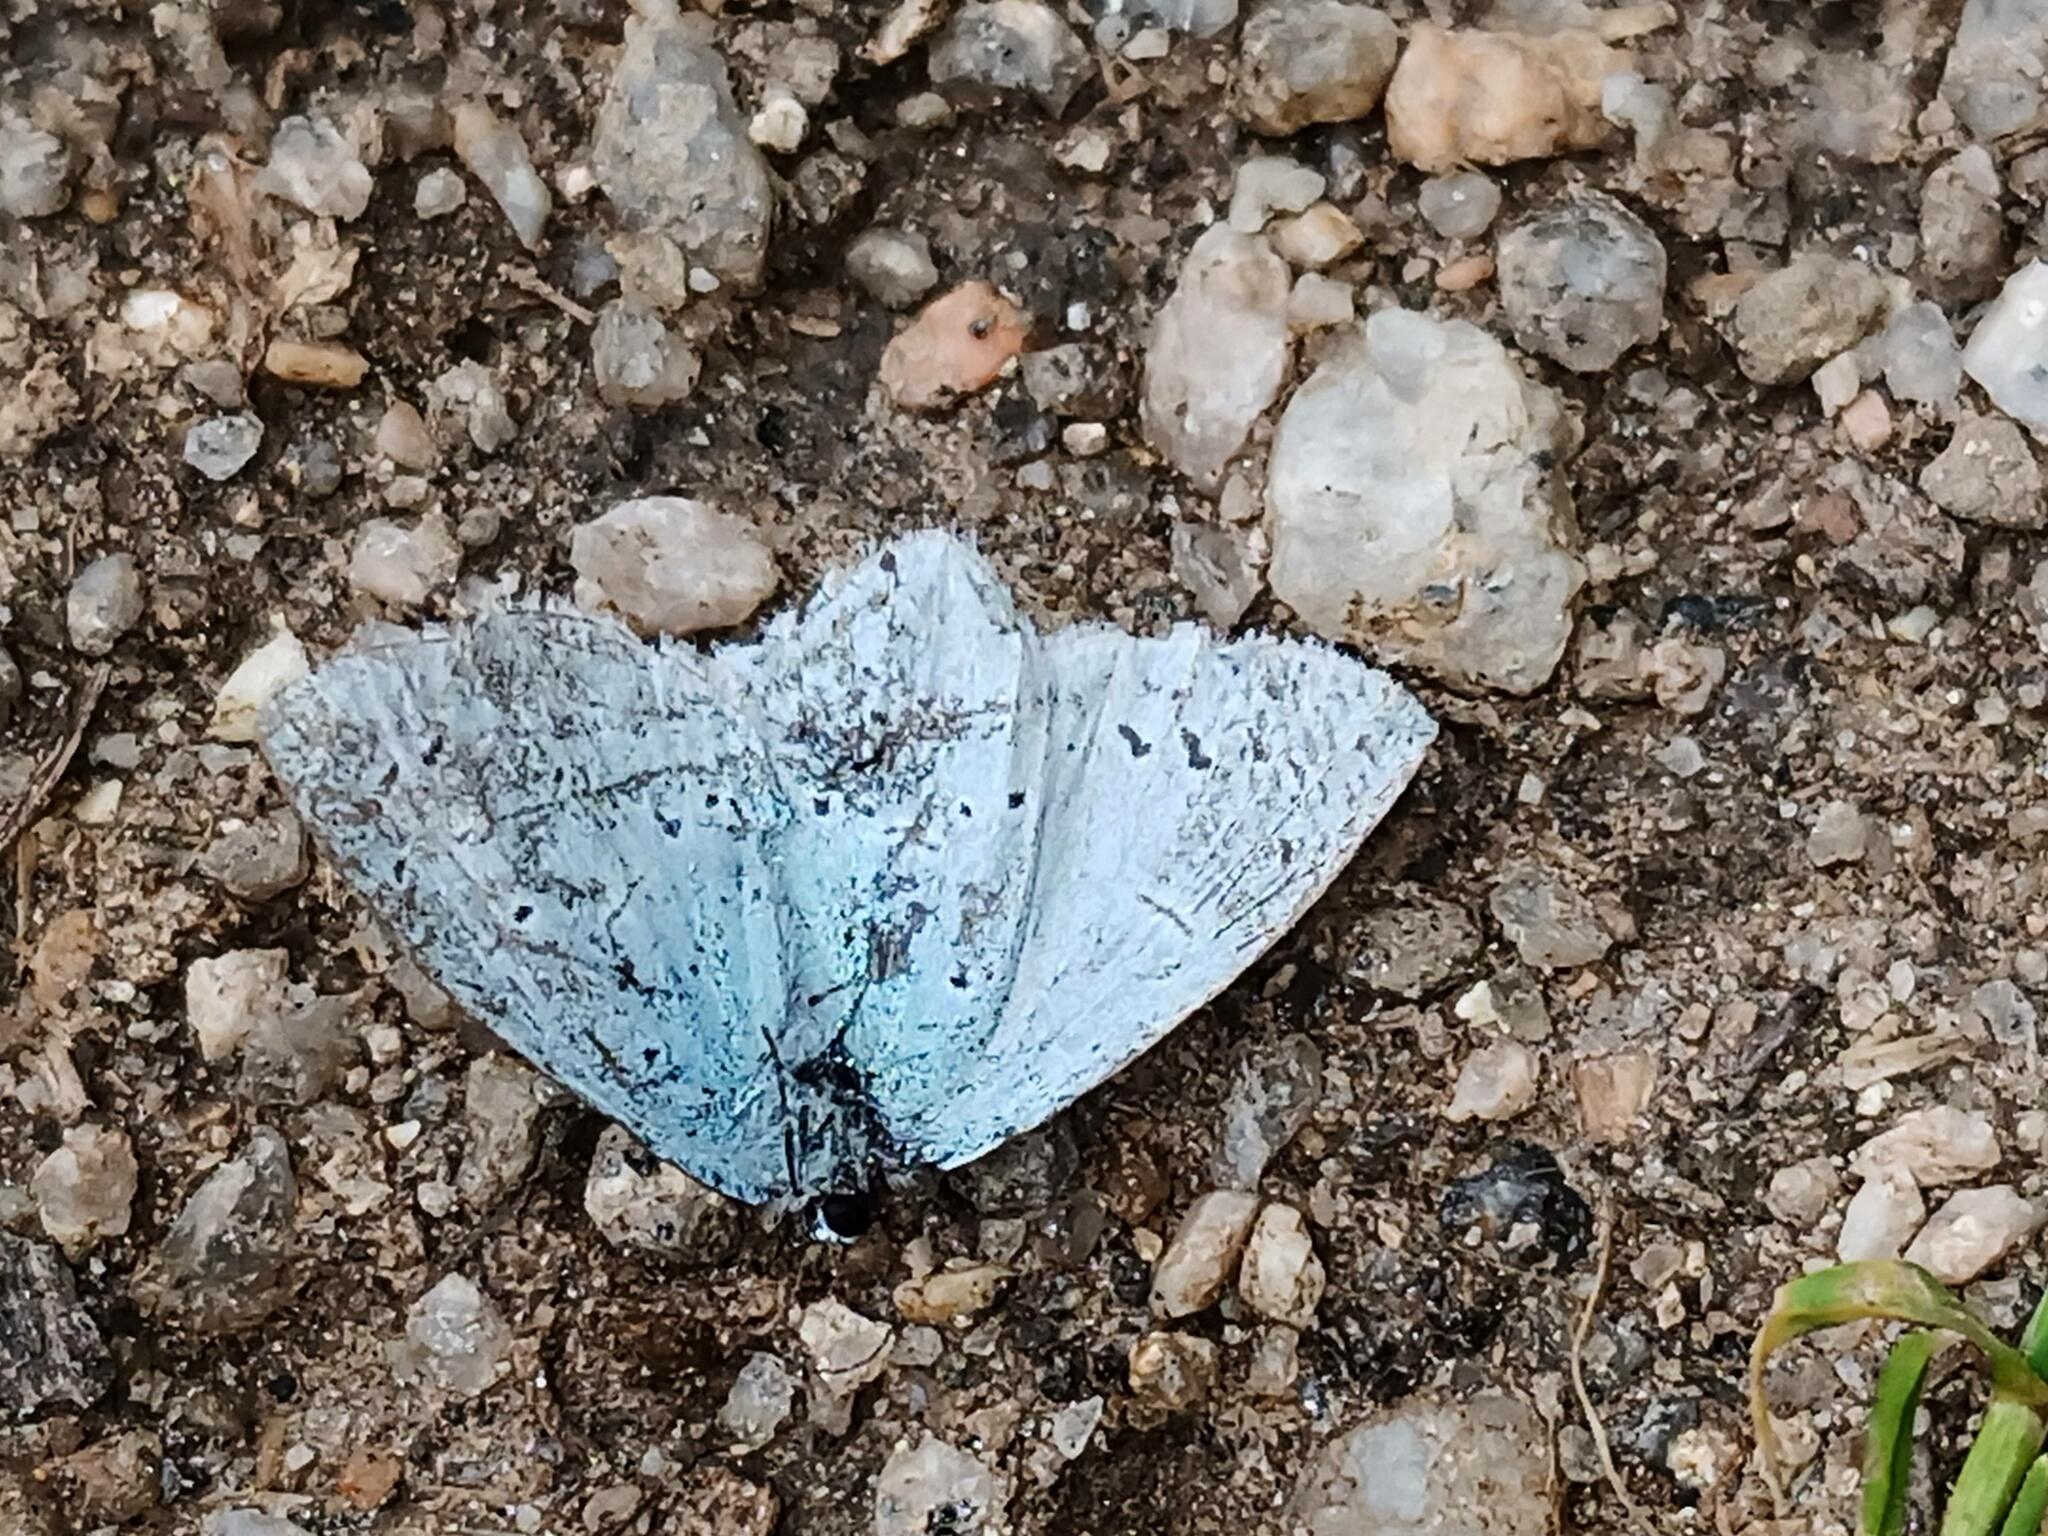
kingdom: Animalia
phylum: Arthropoda
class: Insecta
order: Lepidoptera
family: Lycaenidae
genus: Celastrina
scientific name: Celastrina argiolus
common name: Holly blue
